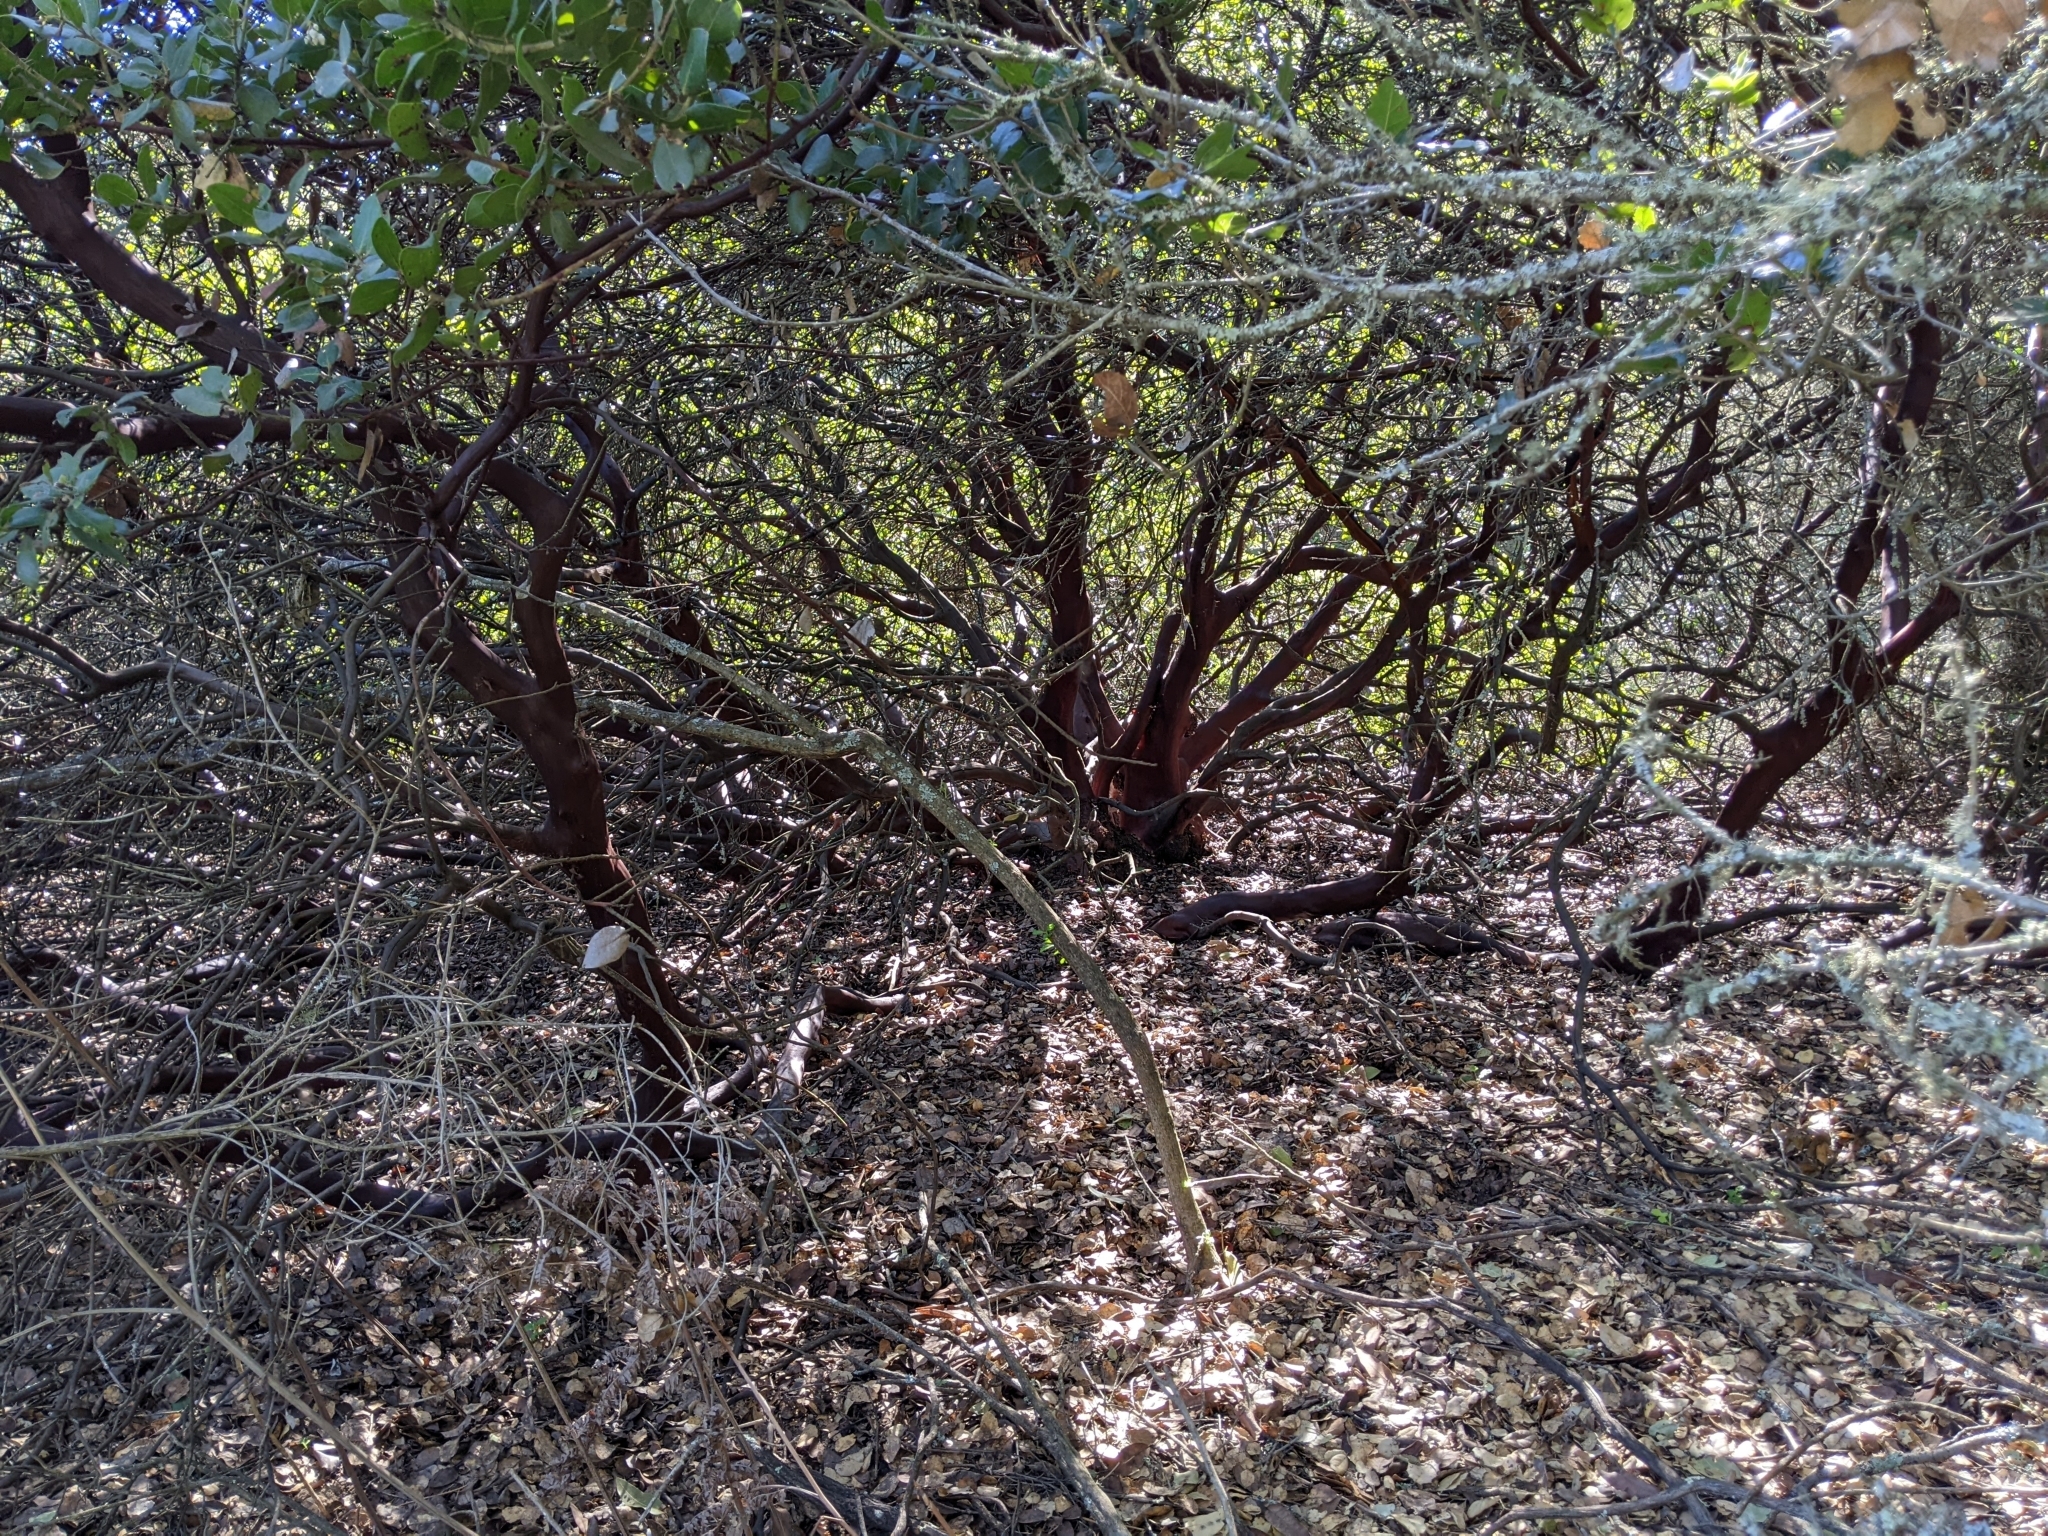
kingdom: Plantae
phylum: Tracheophyta
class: Magnoliopsida
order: Ericales
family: Ericaceae
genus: Arctostaphylos
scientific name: Arctostaphylos crustacea
